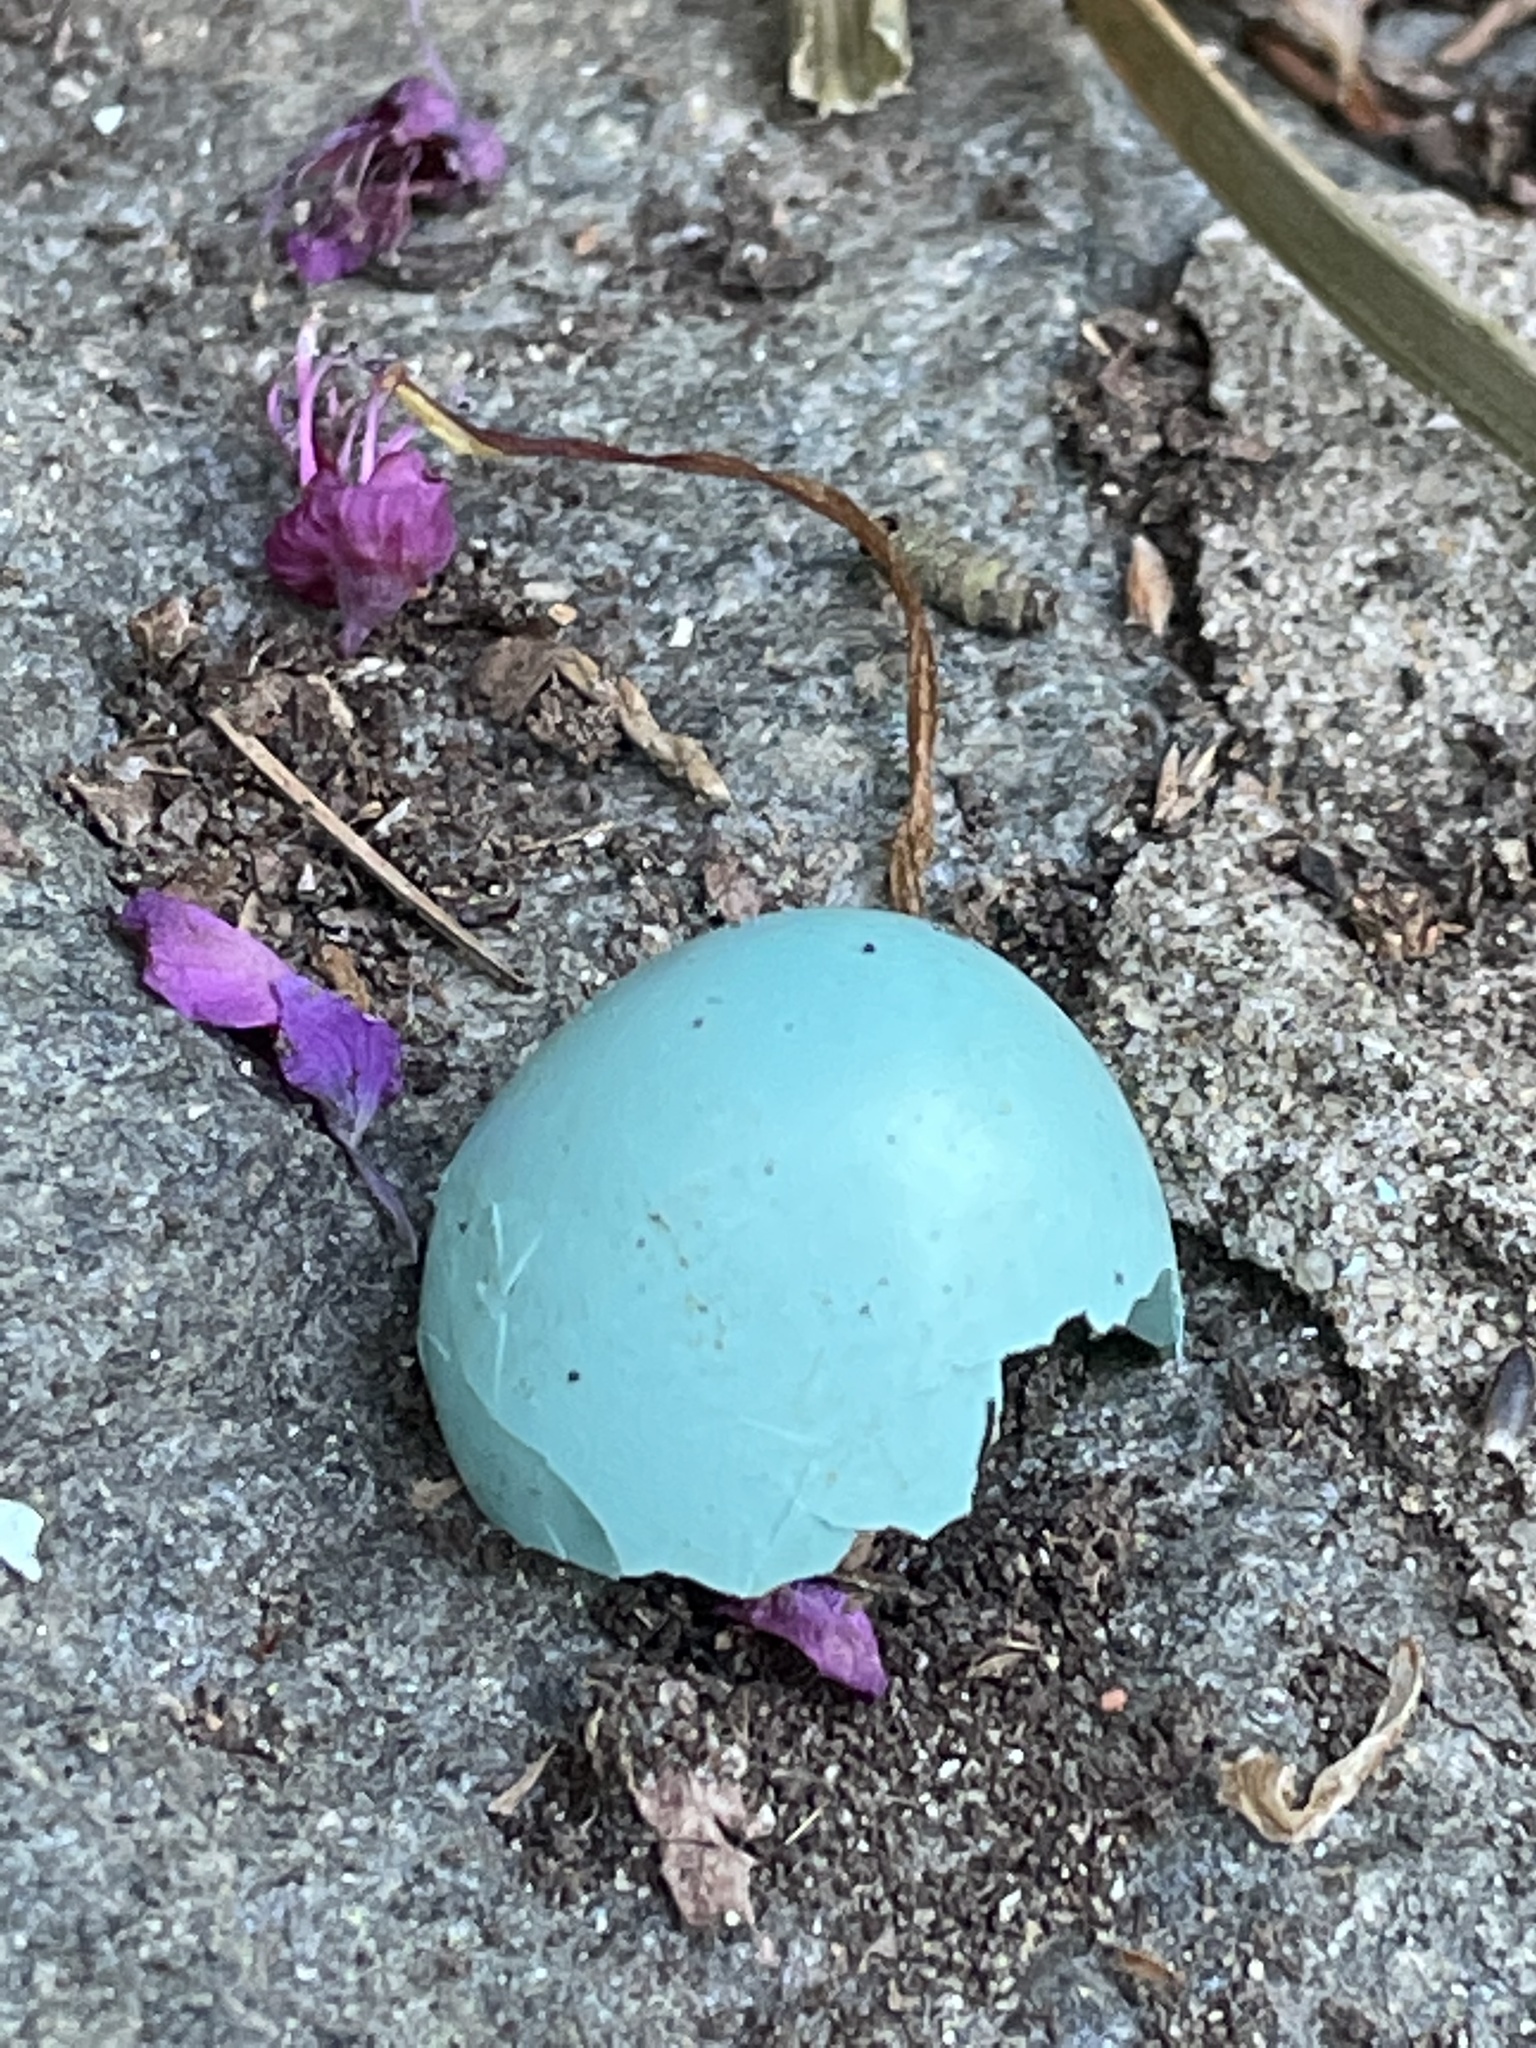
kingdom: Animalia
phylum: Chordata
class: Aves
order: Passeriformes
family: Turdidae
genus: Turdus
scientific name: Turdus migratorius
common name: American robin
